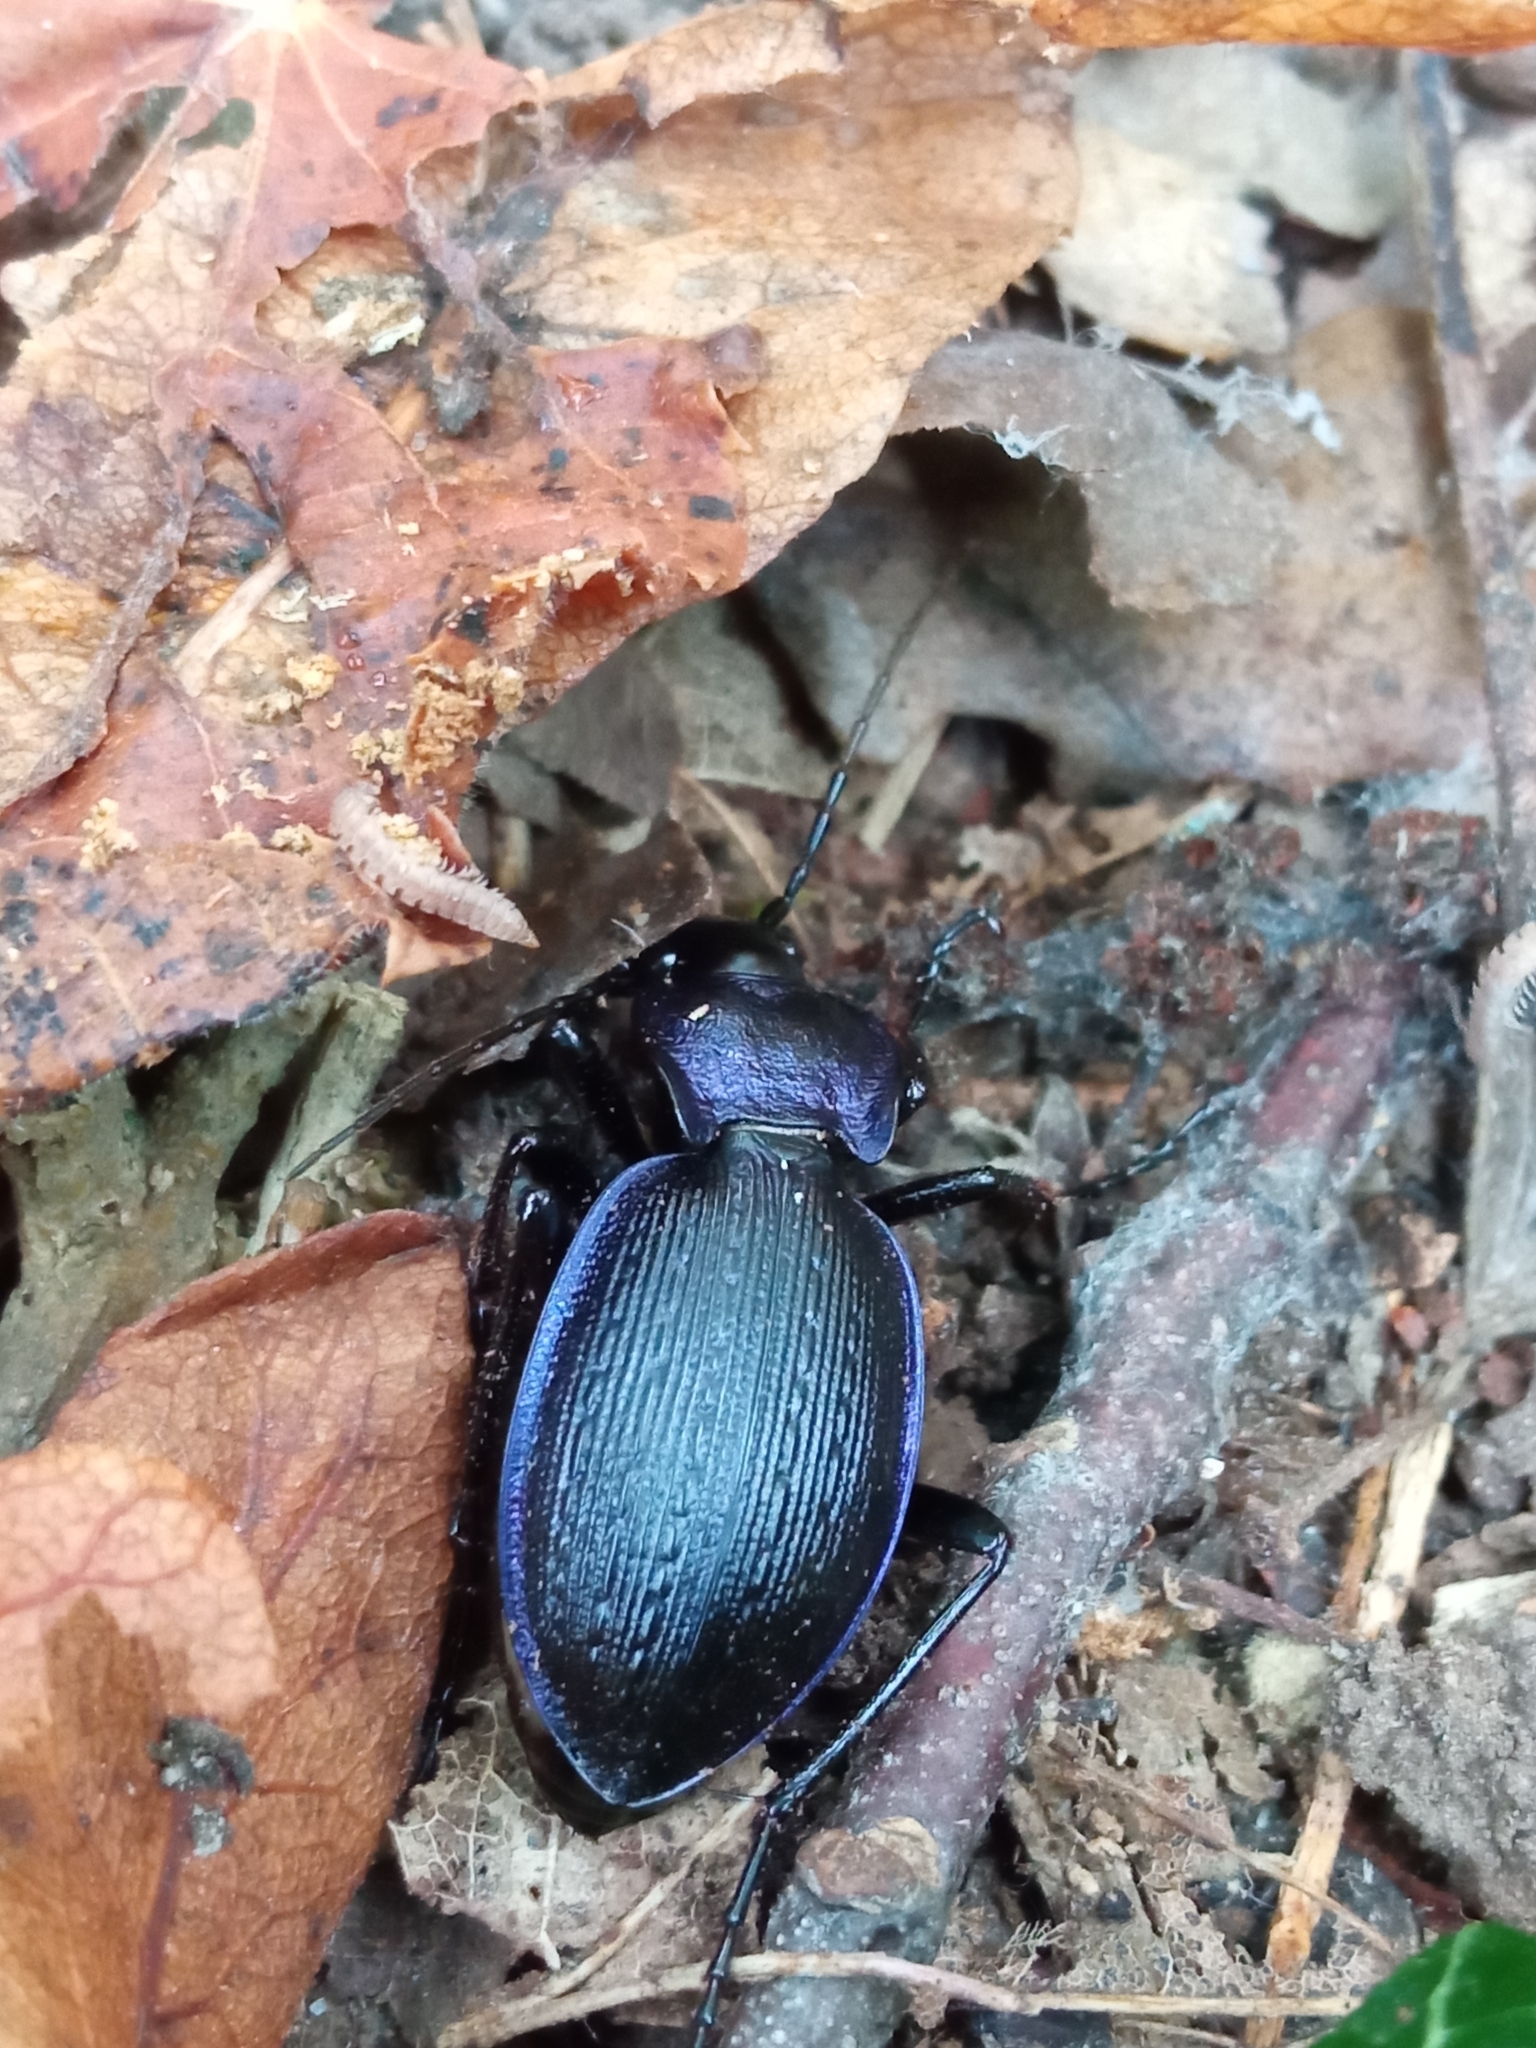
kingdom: Animalia
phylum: Arthropoda
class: Insecta
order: Coleoptera
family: Carabidae
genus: Carabus
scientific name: Carabus problematicus
